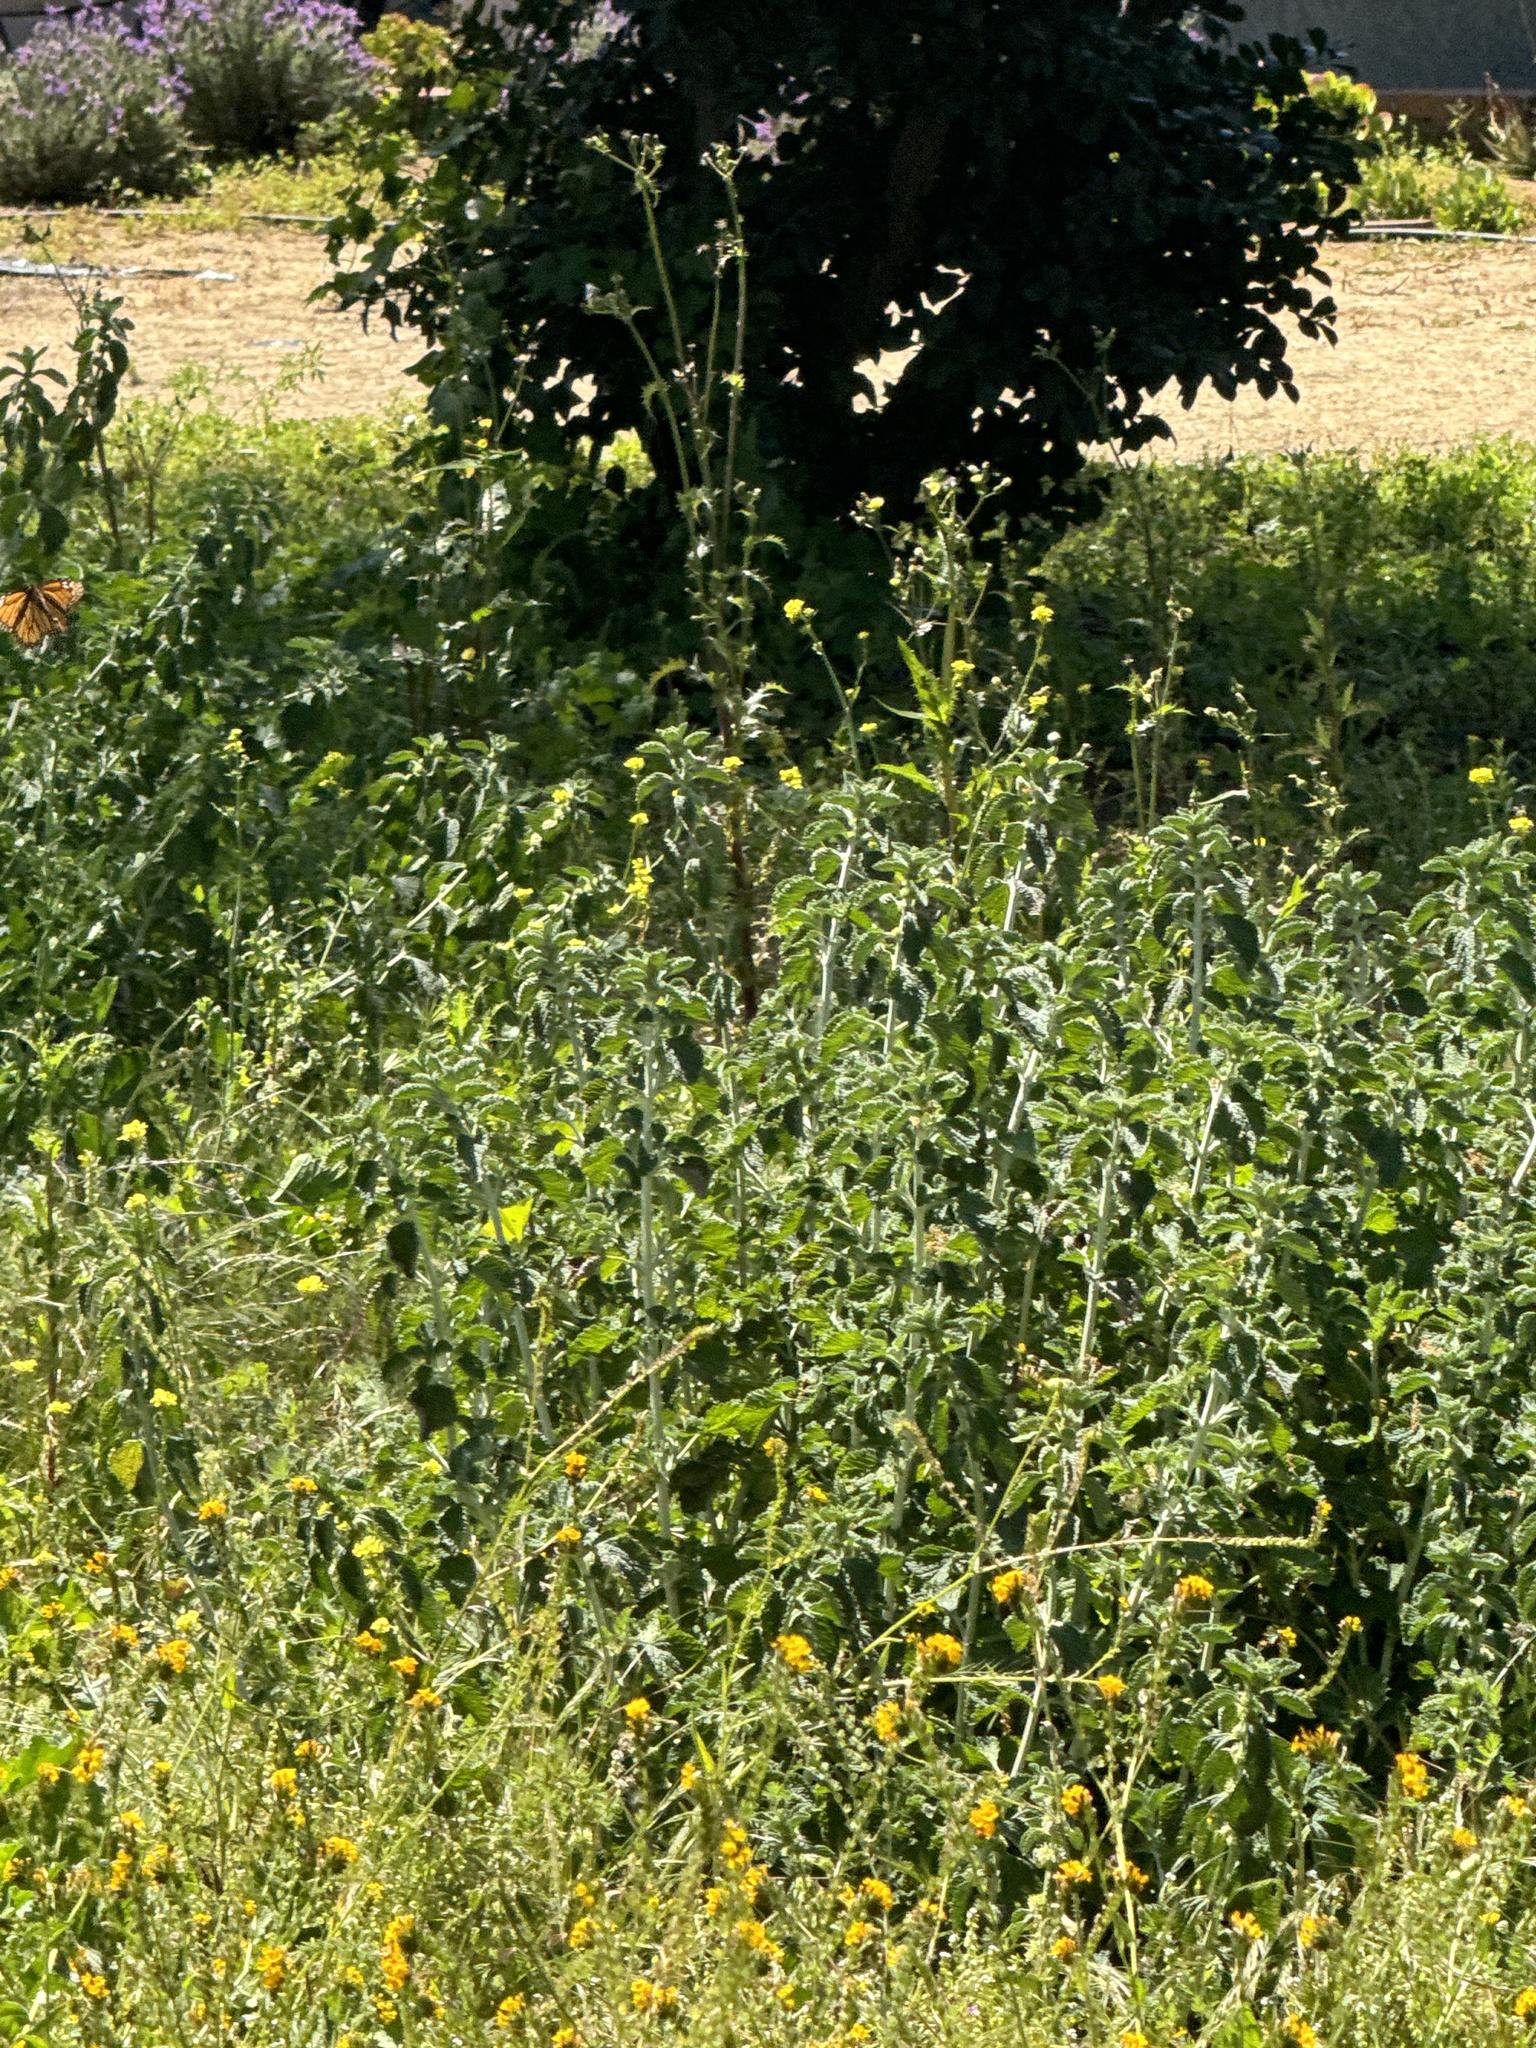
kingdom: Animalia
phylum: Arthropoda
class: Insecta
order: Lepidoptera
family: Nymphalidae
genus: Danaus
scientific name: Danaus plexippus
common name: Monarch
